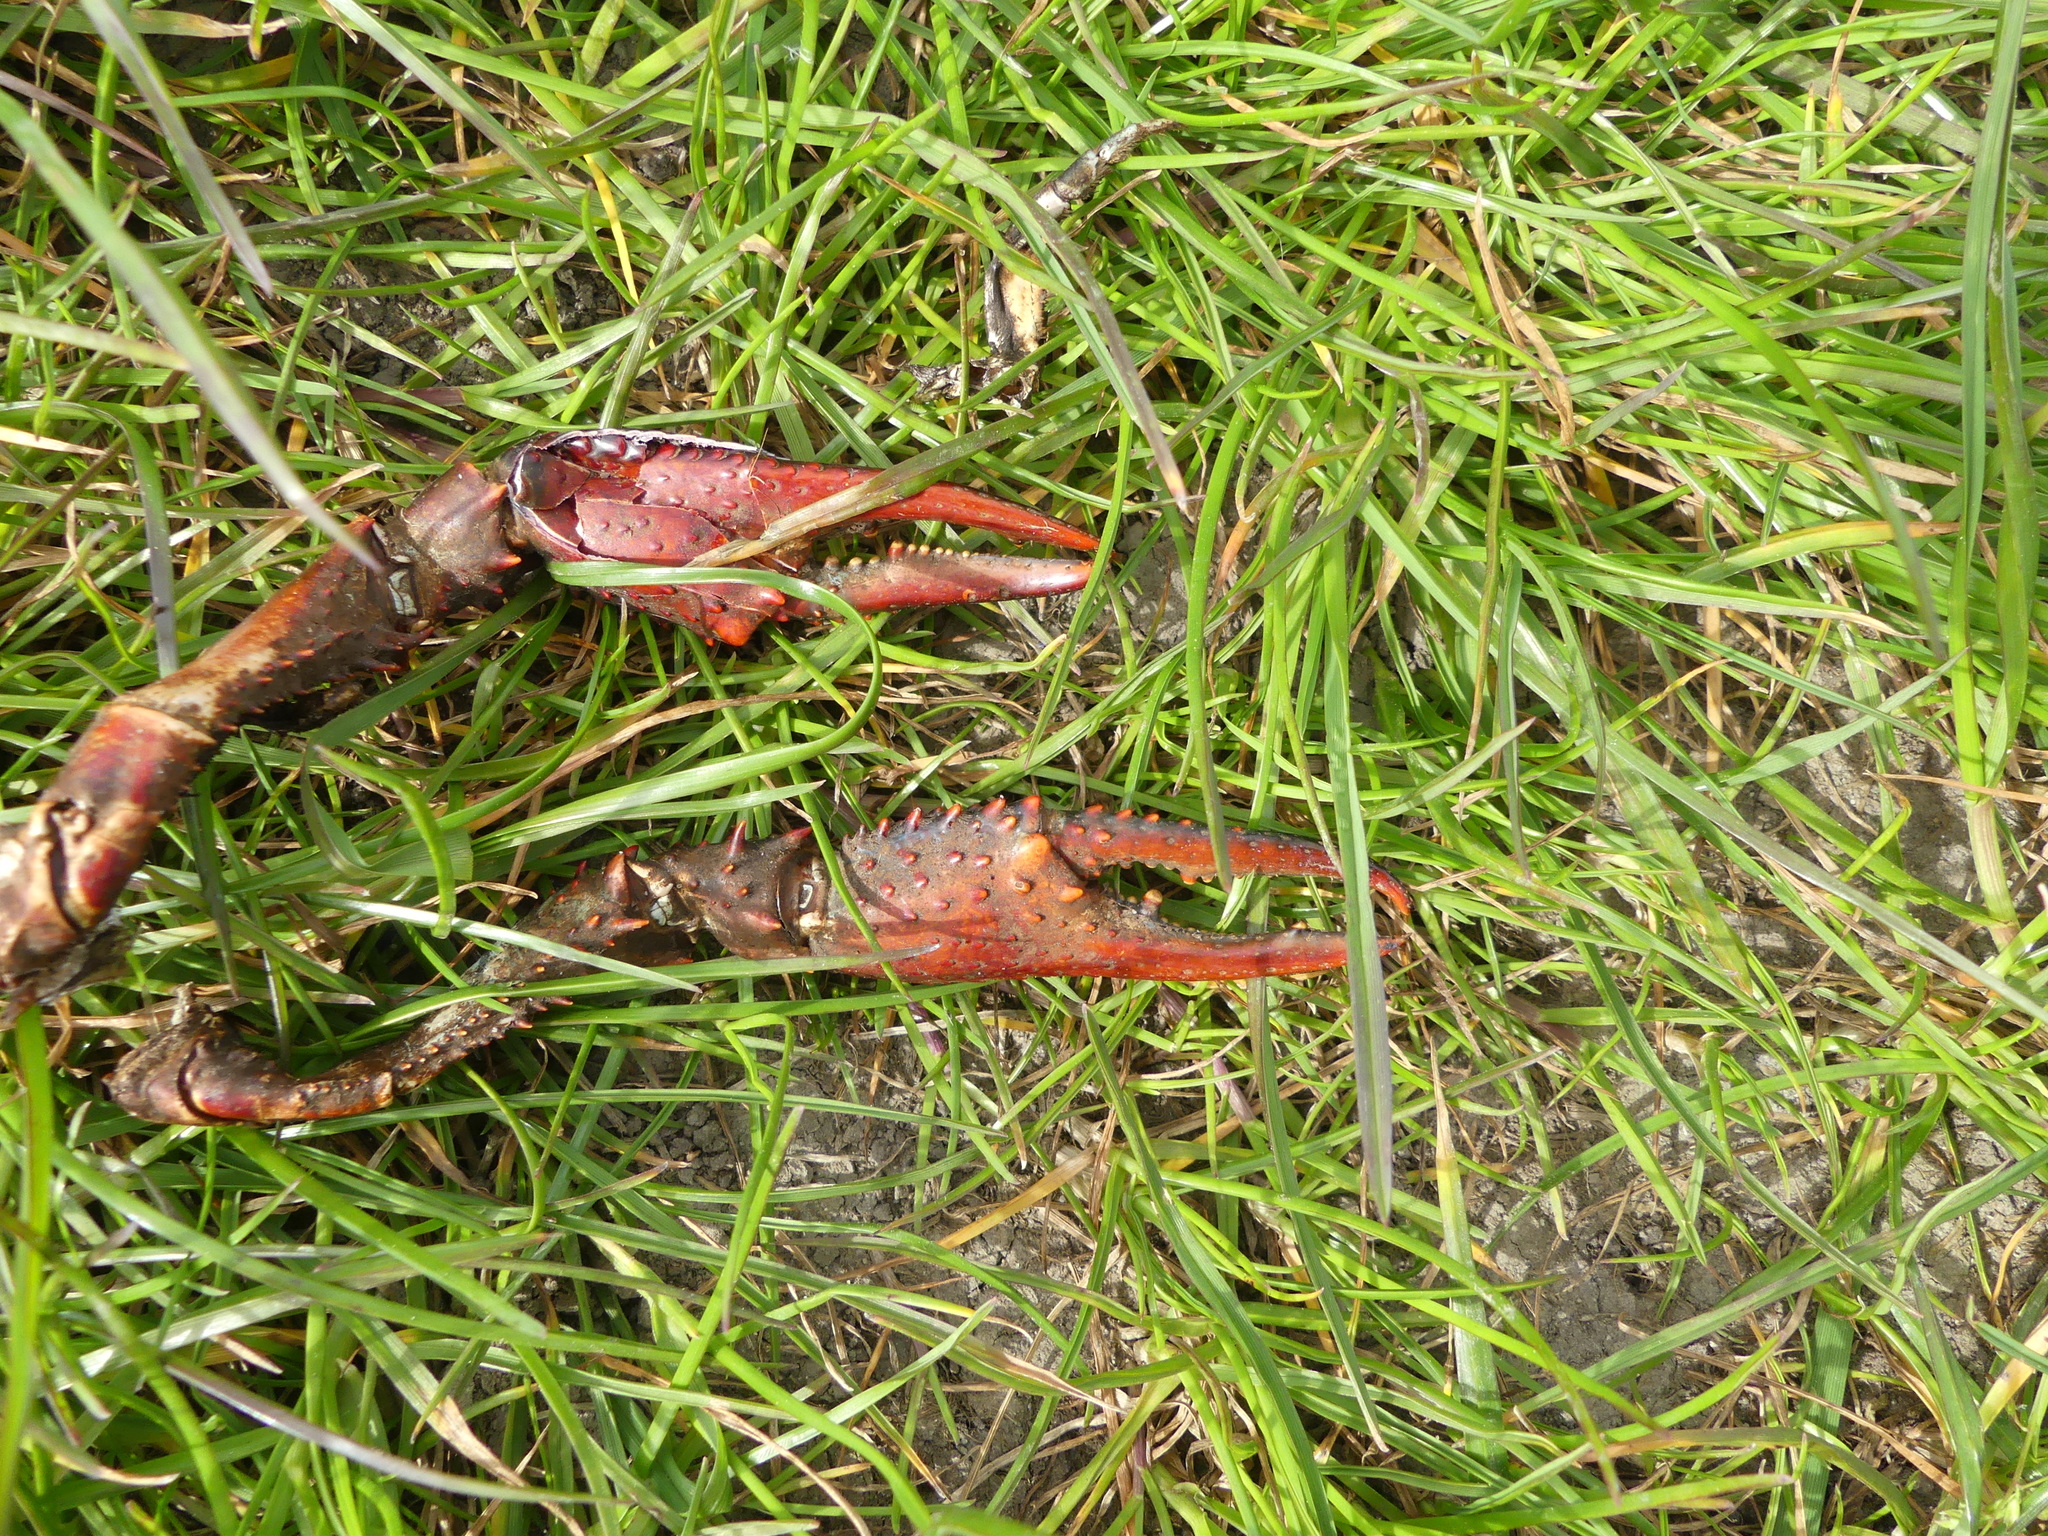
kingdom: Animalia
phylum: Arthropoda
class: Malacostraca
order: Decapoda
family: Cambaridae
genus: Procambarus
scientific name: Procambarus clarkii
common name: Red swamp crayfish
